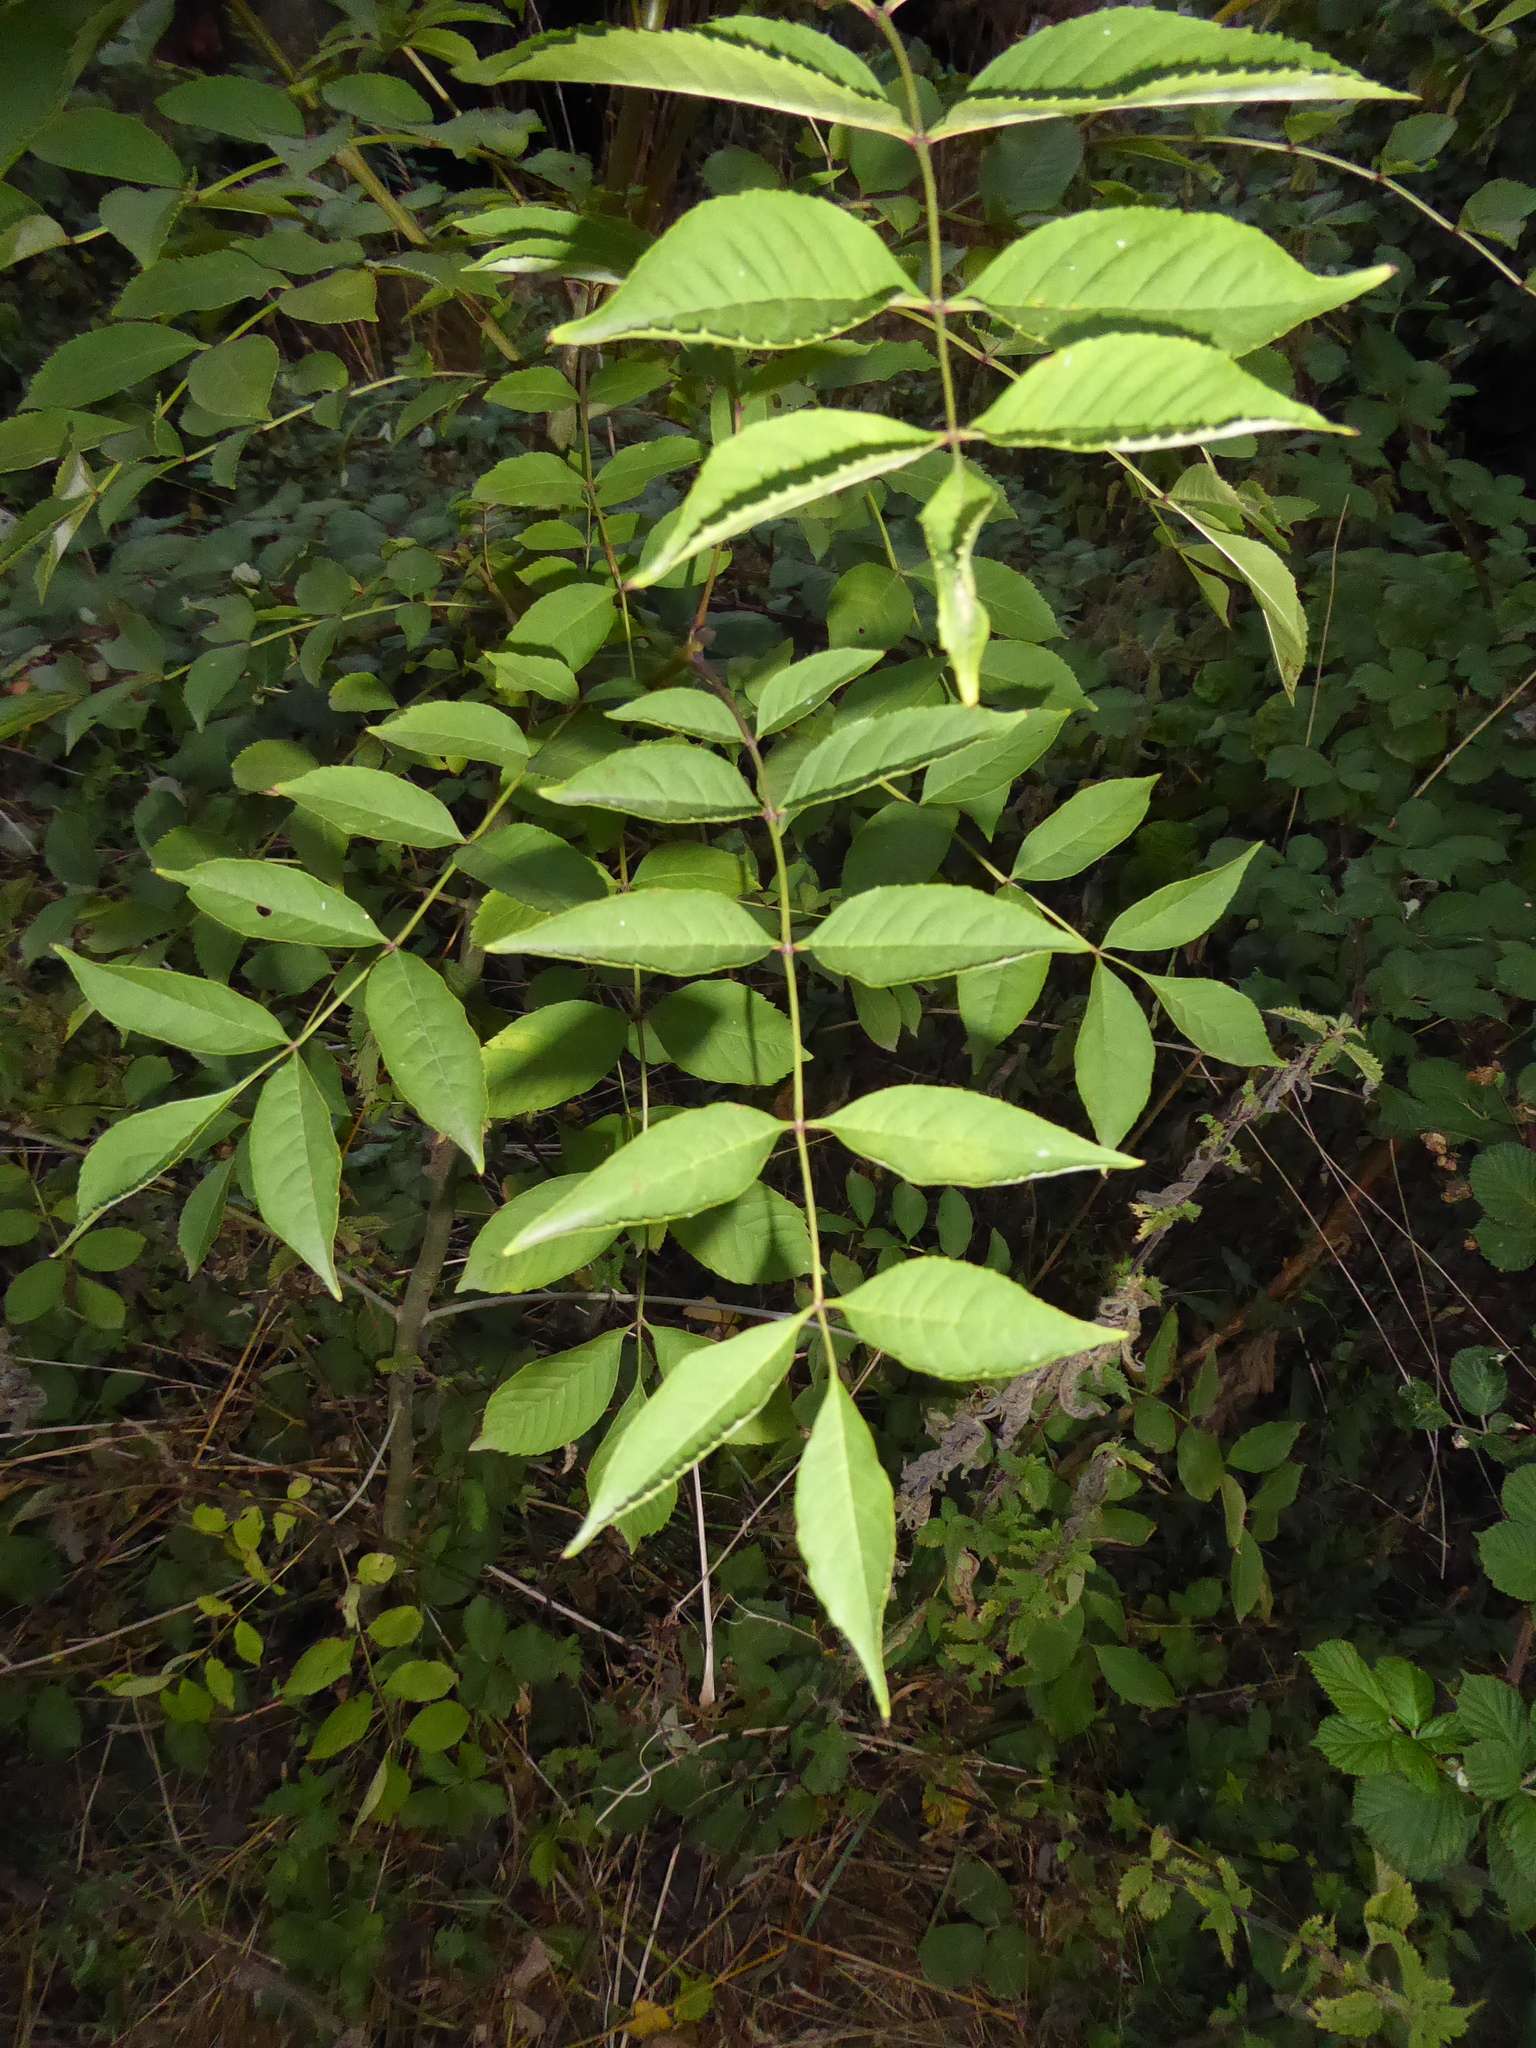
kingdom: Plantae
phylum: Tracheophyta
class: Magnoliopsida
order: Lamiales
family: Oleaceae
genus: Fraxinus
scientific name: Fraxinus excelsior
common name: European ash
